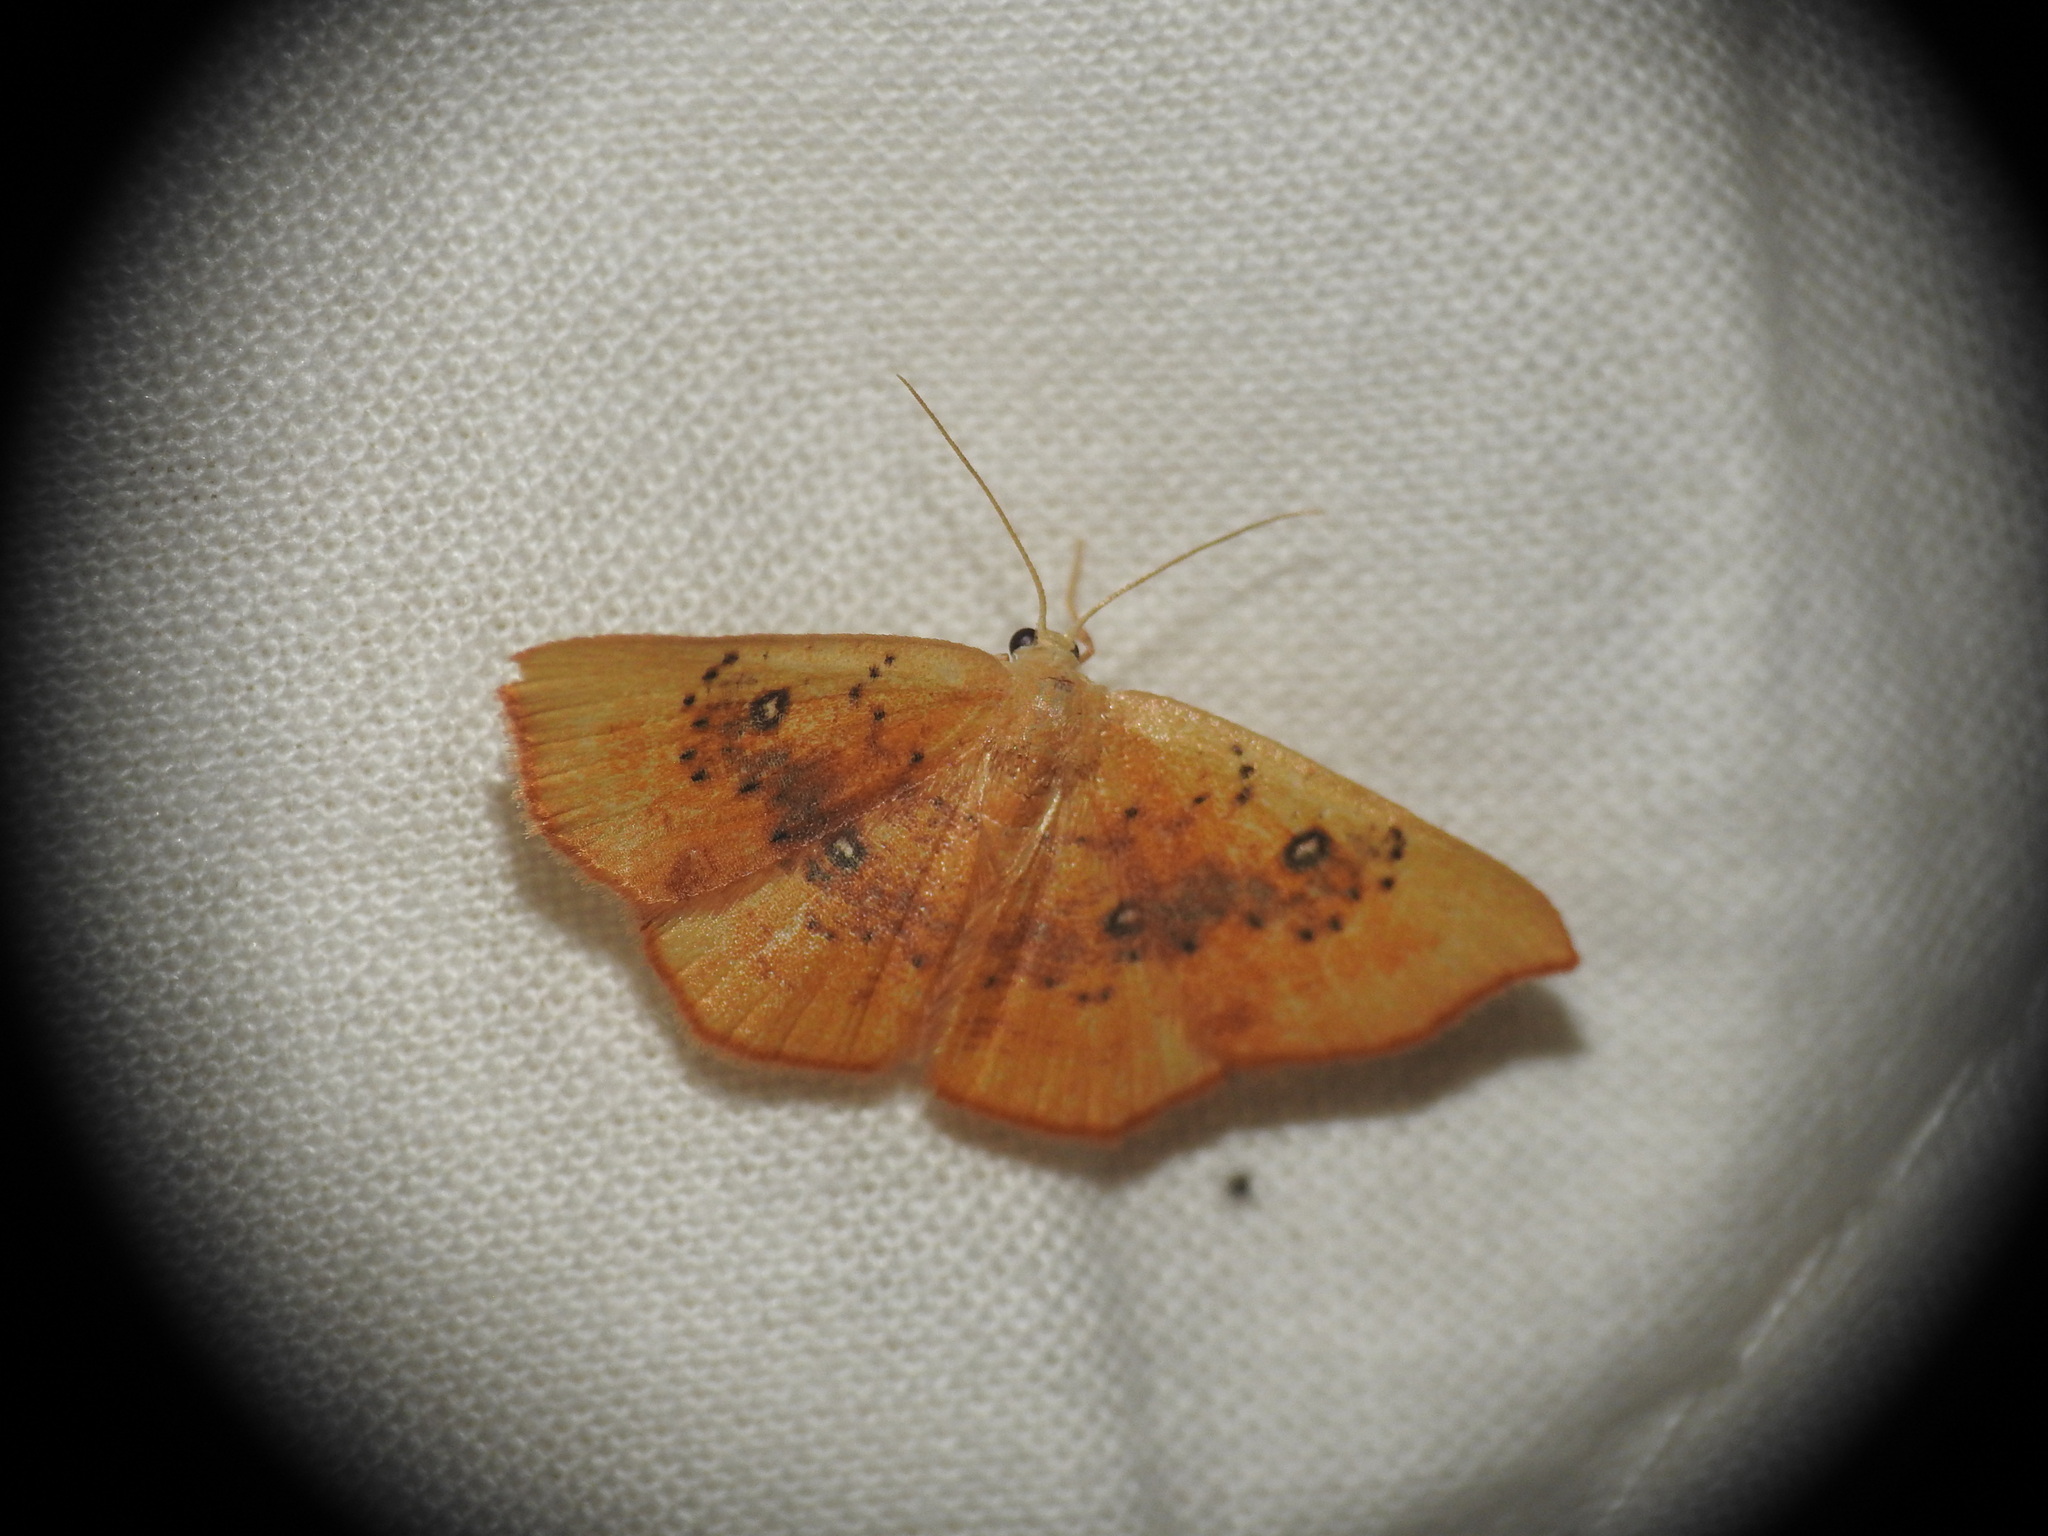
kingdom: Animalia
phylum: Arthropoda
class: Insecta
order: Lepidoptera
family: Geometridae
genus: Cyclophora
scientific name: Cyclophora lennigiaria
